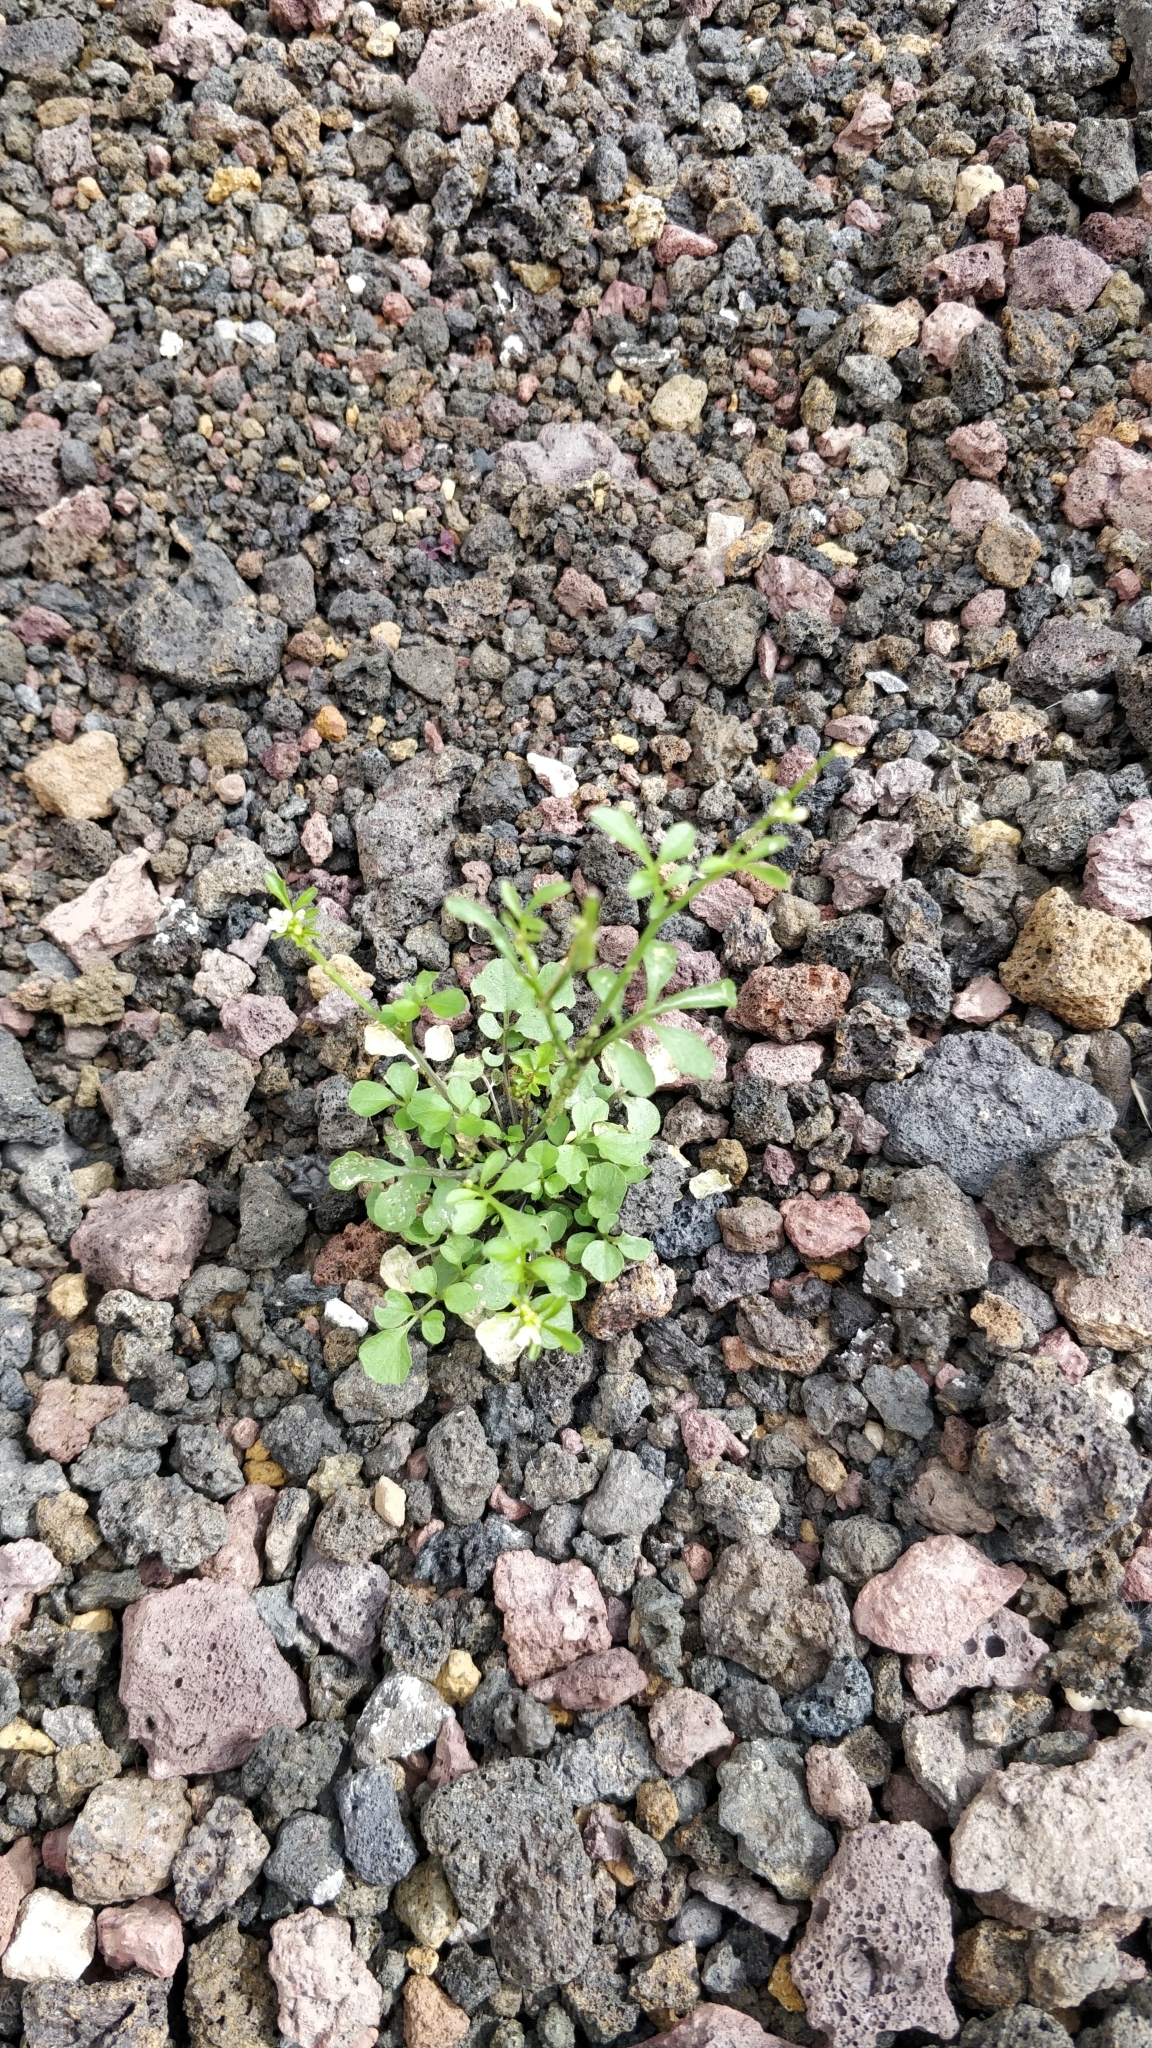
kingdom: Plantae
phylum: Tracheophyta
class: Magnoliopsida
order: Brassicales
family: Brassicaceae
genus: Cardamine
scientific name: Cardamine hirsuta
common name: Hairy bittercress
